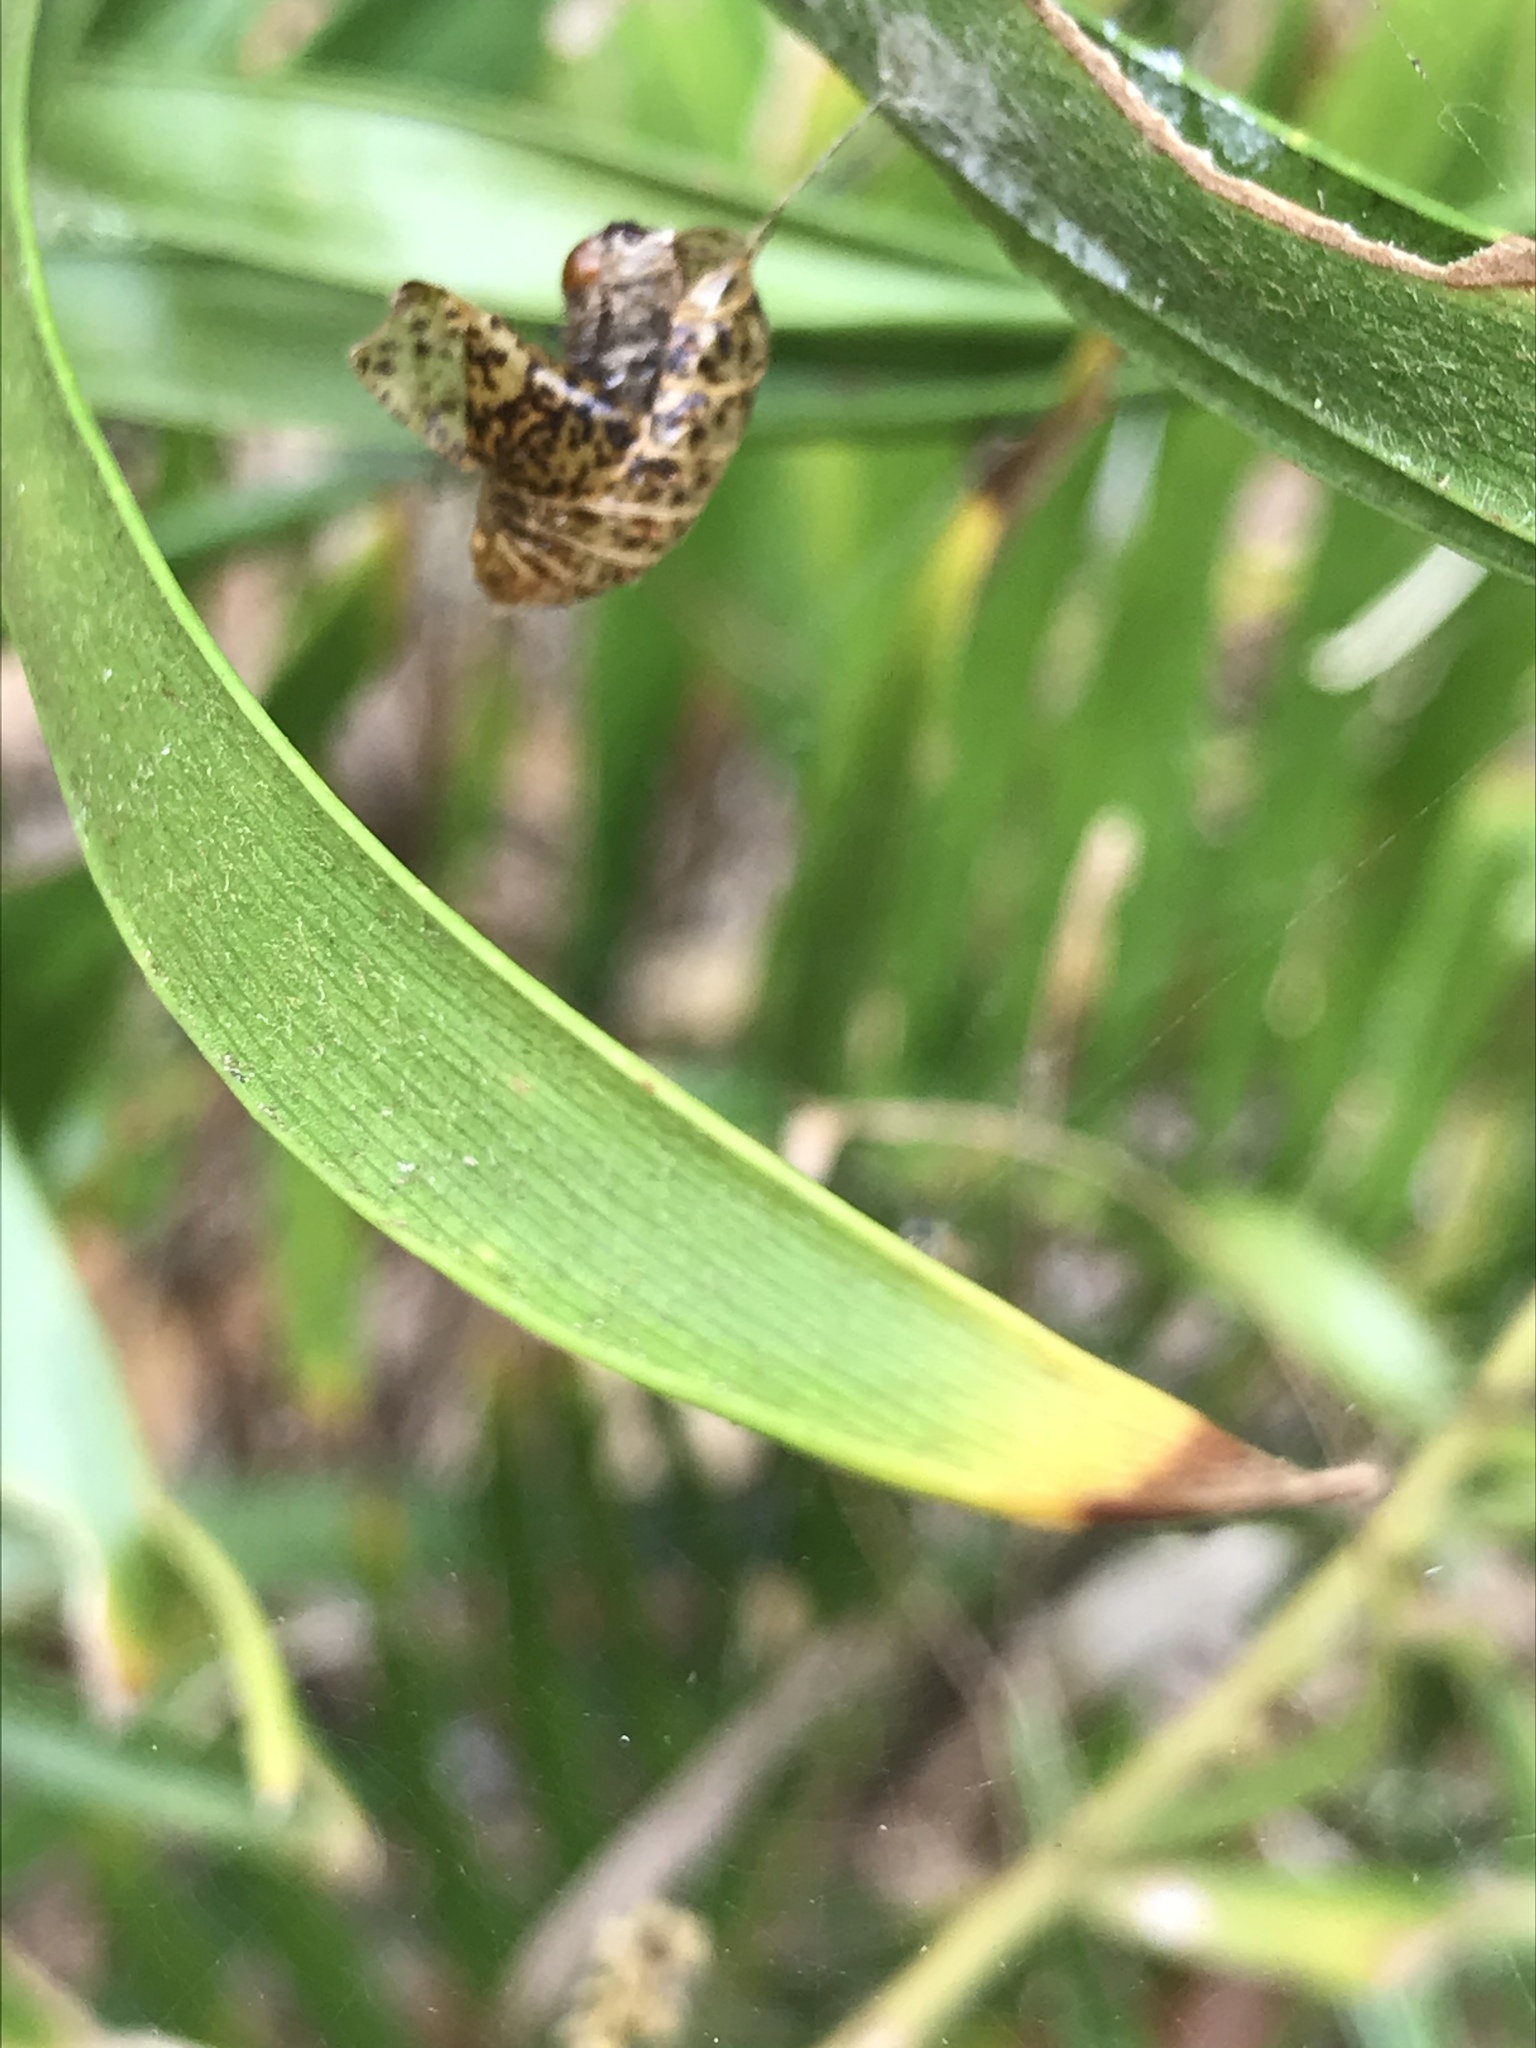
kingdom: Animalia
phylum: Arthropoda
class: Insecta
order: Lepidoptera
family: Lycaenidae
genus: Eumaeus
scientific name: Eumaeus atala
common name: Atala
